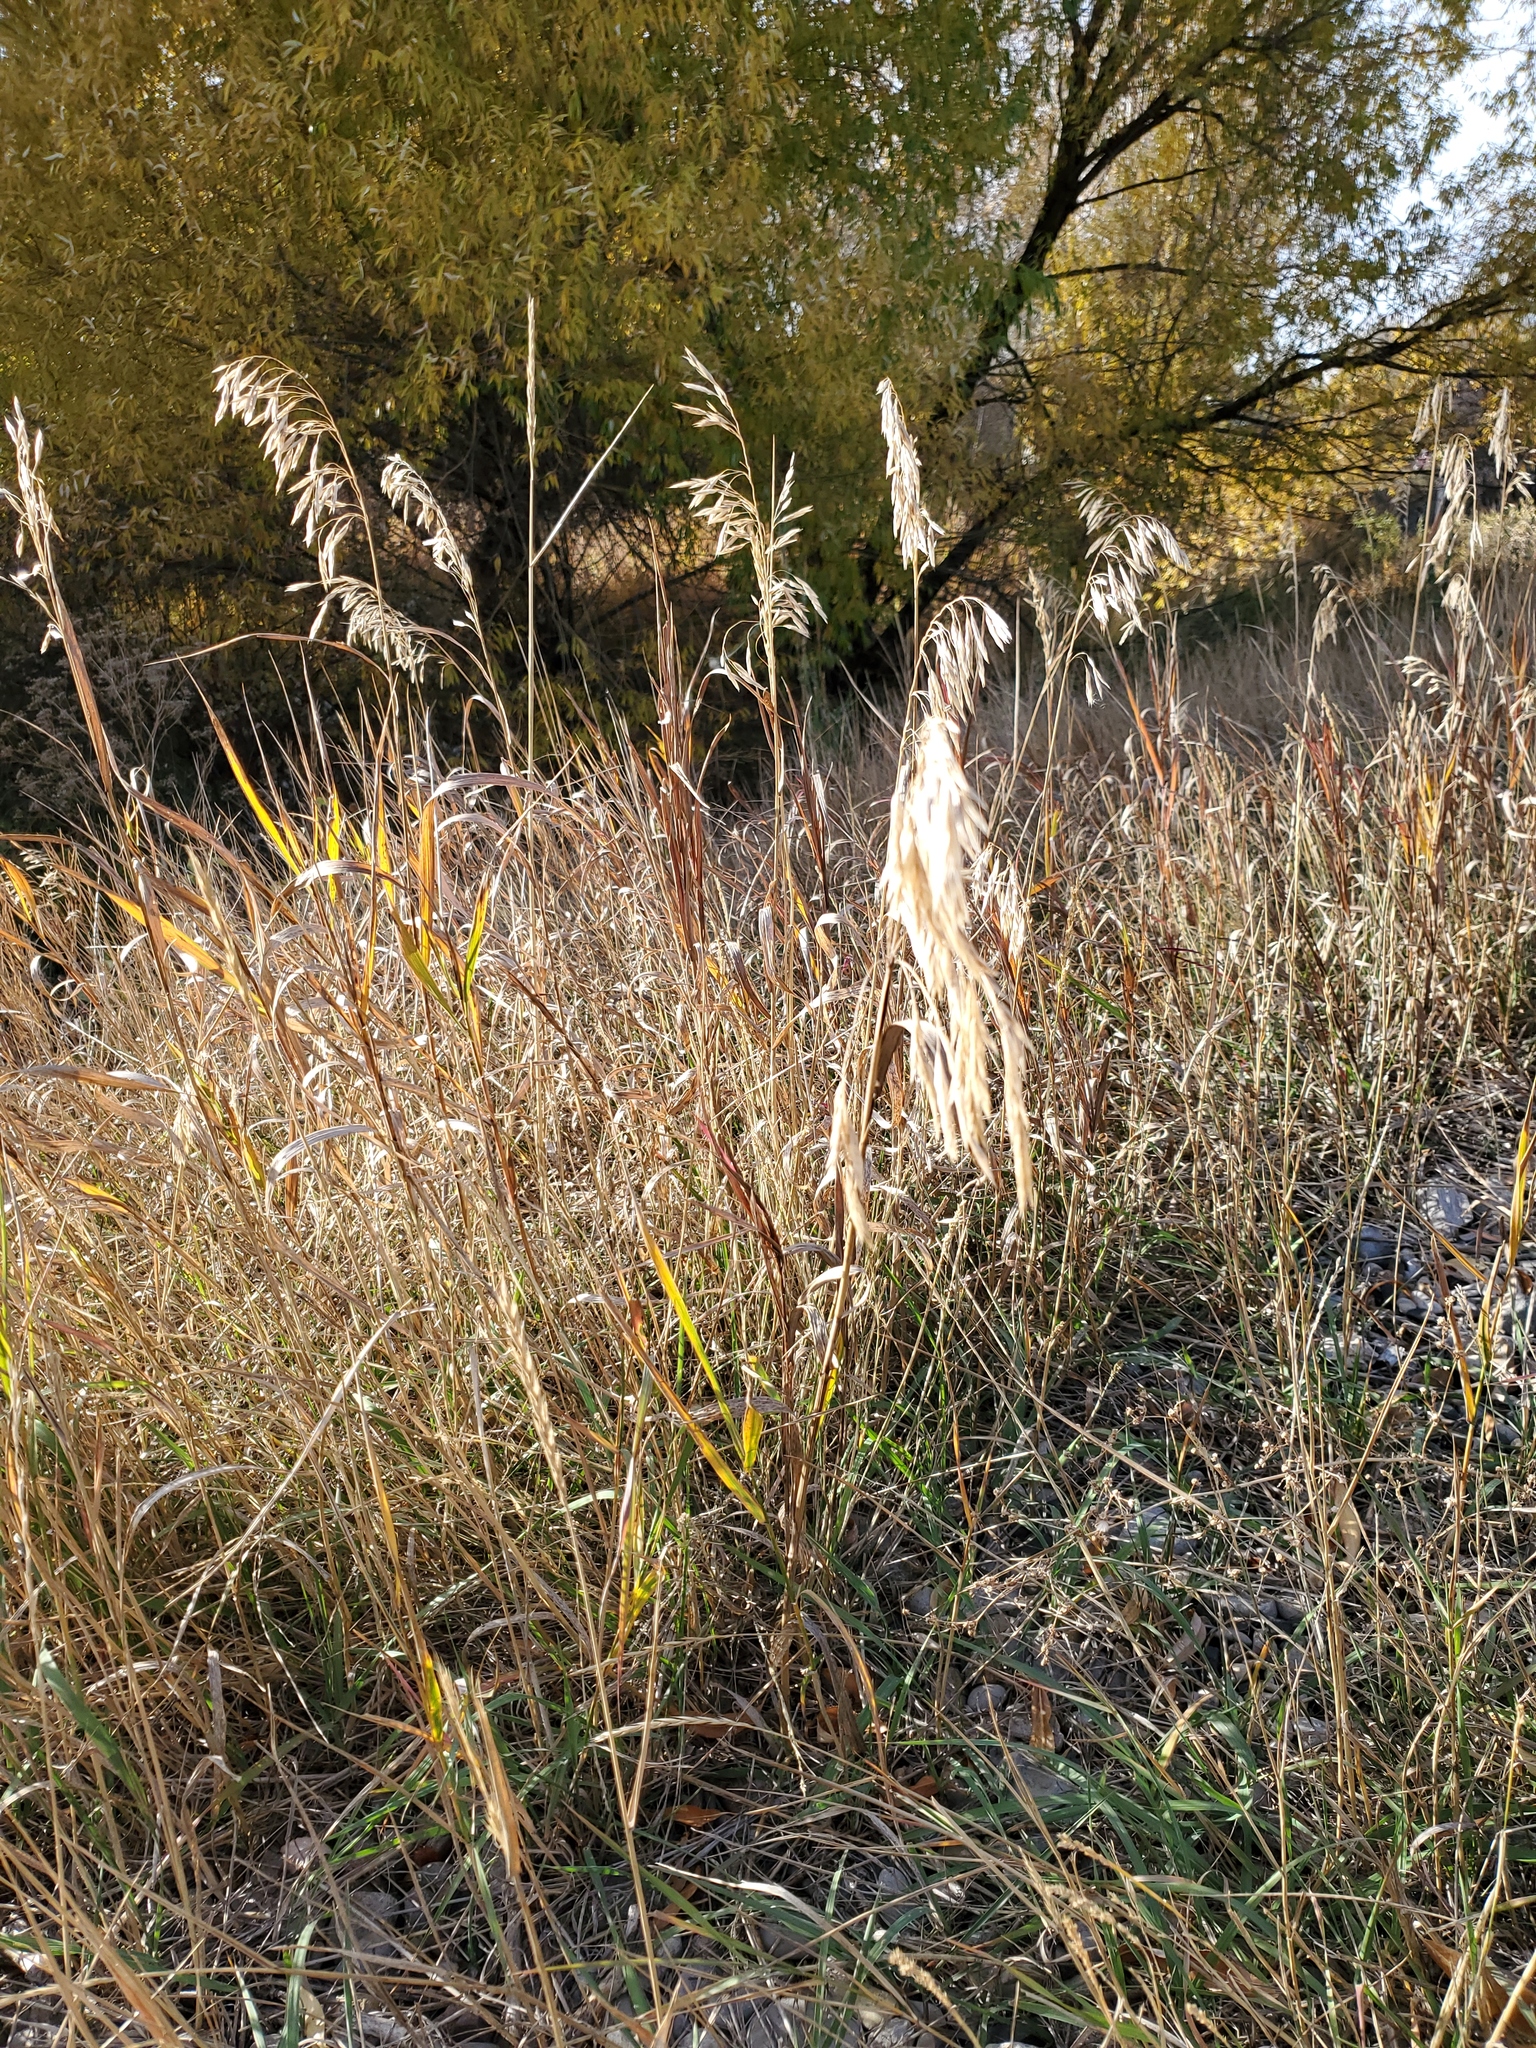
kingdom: Plantae
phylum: Tracheophyta
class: Liliopsida
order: Poales
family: Poaceae
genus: Bromus
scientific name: Bromus inermis
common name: Smooth brome
